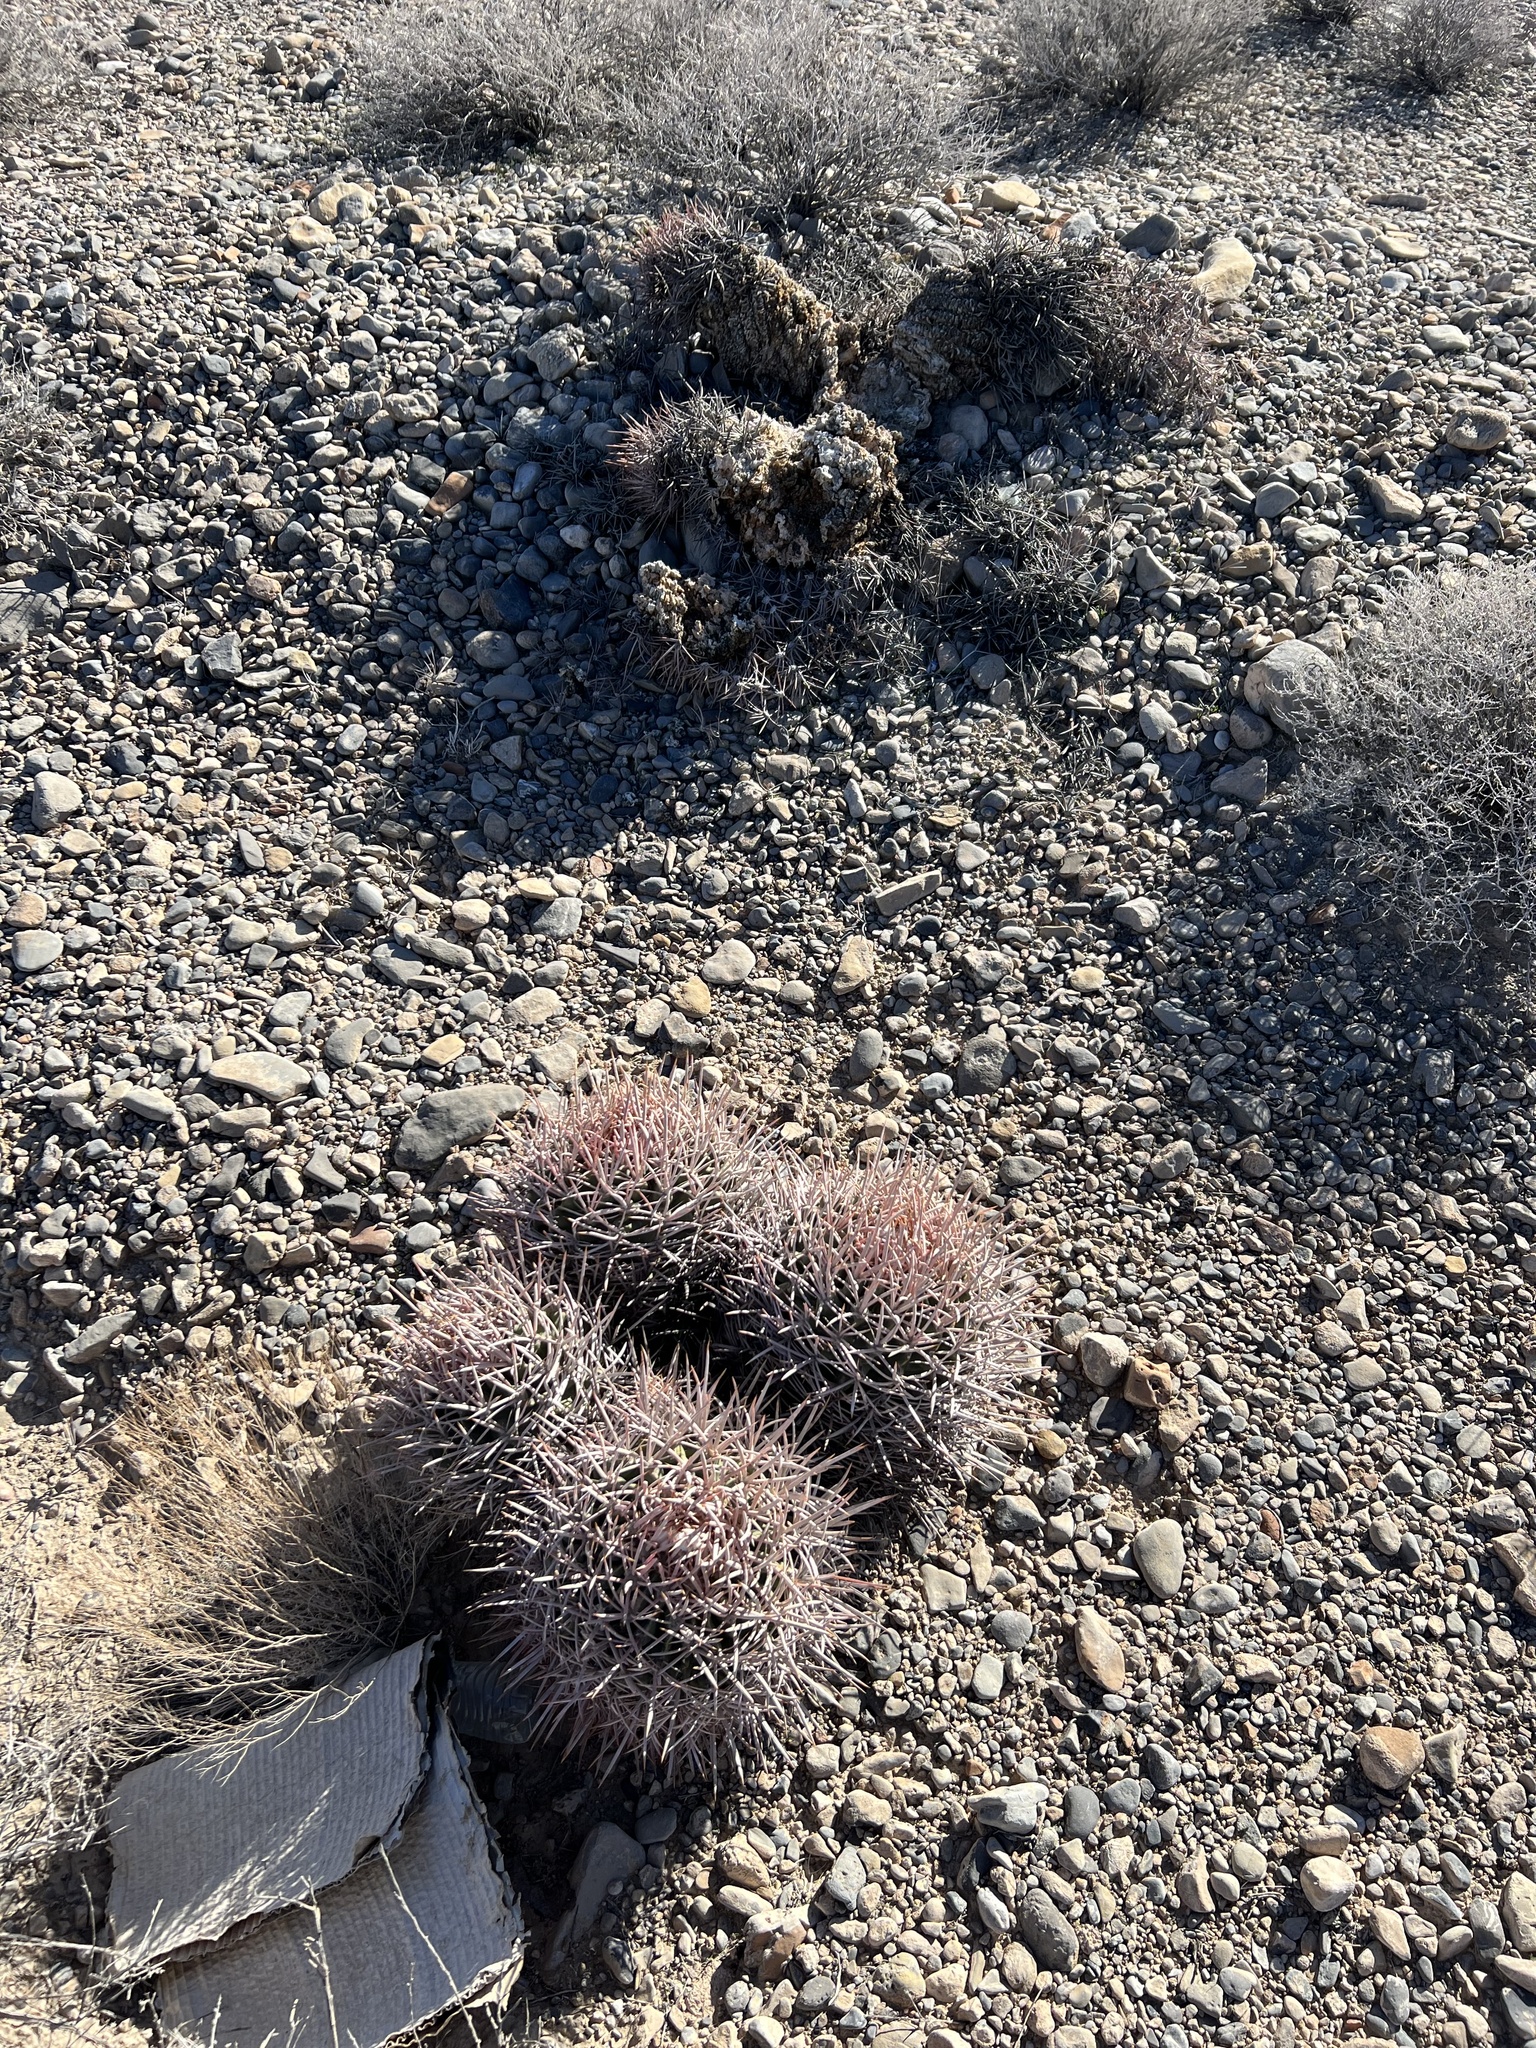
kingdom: Plantae
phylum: Tracheophyta
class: Magnoliopsida
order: Caryophyllales
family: Cactaceae
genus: Echinocactus
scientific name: Echinocactus polycephalus
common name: Cottontop cactus
